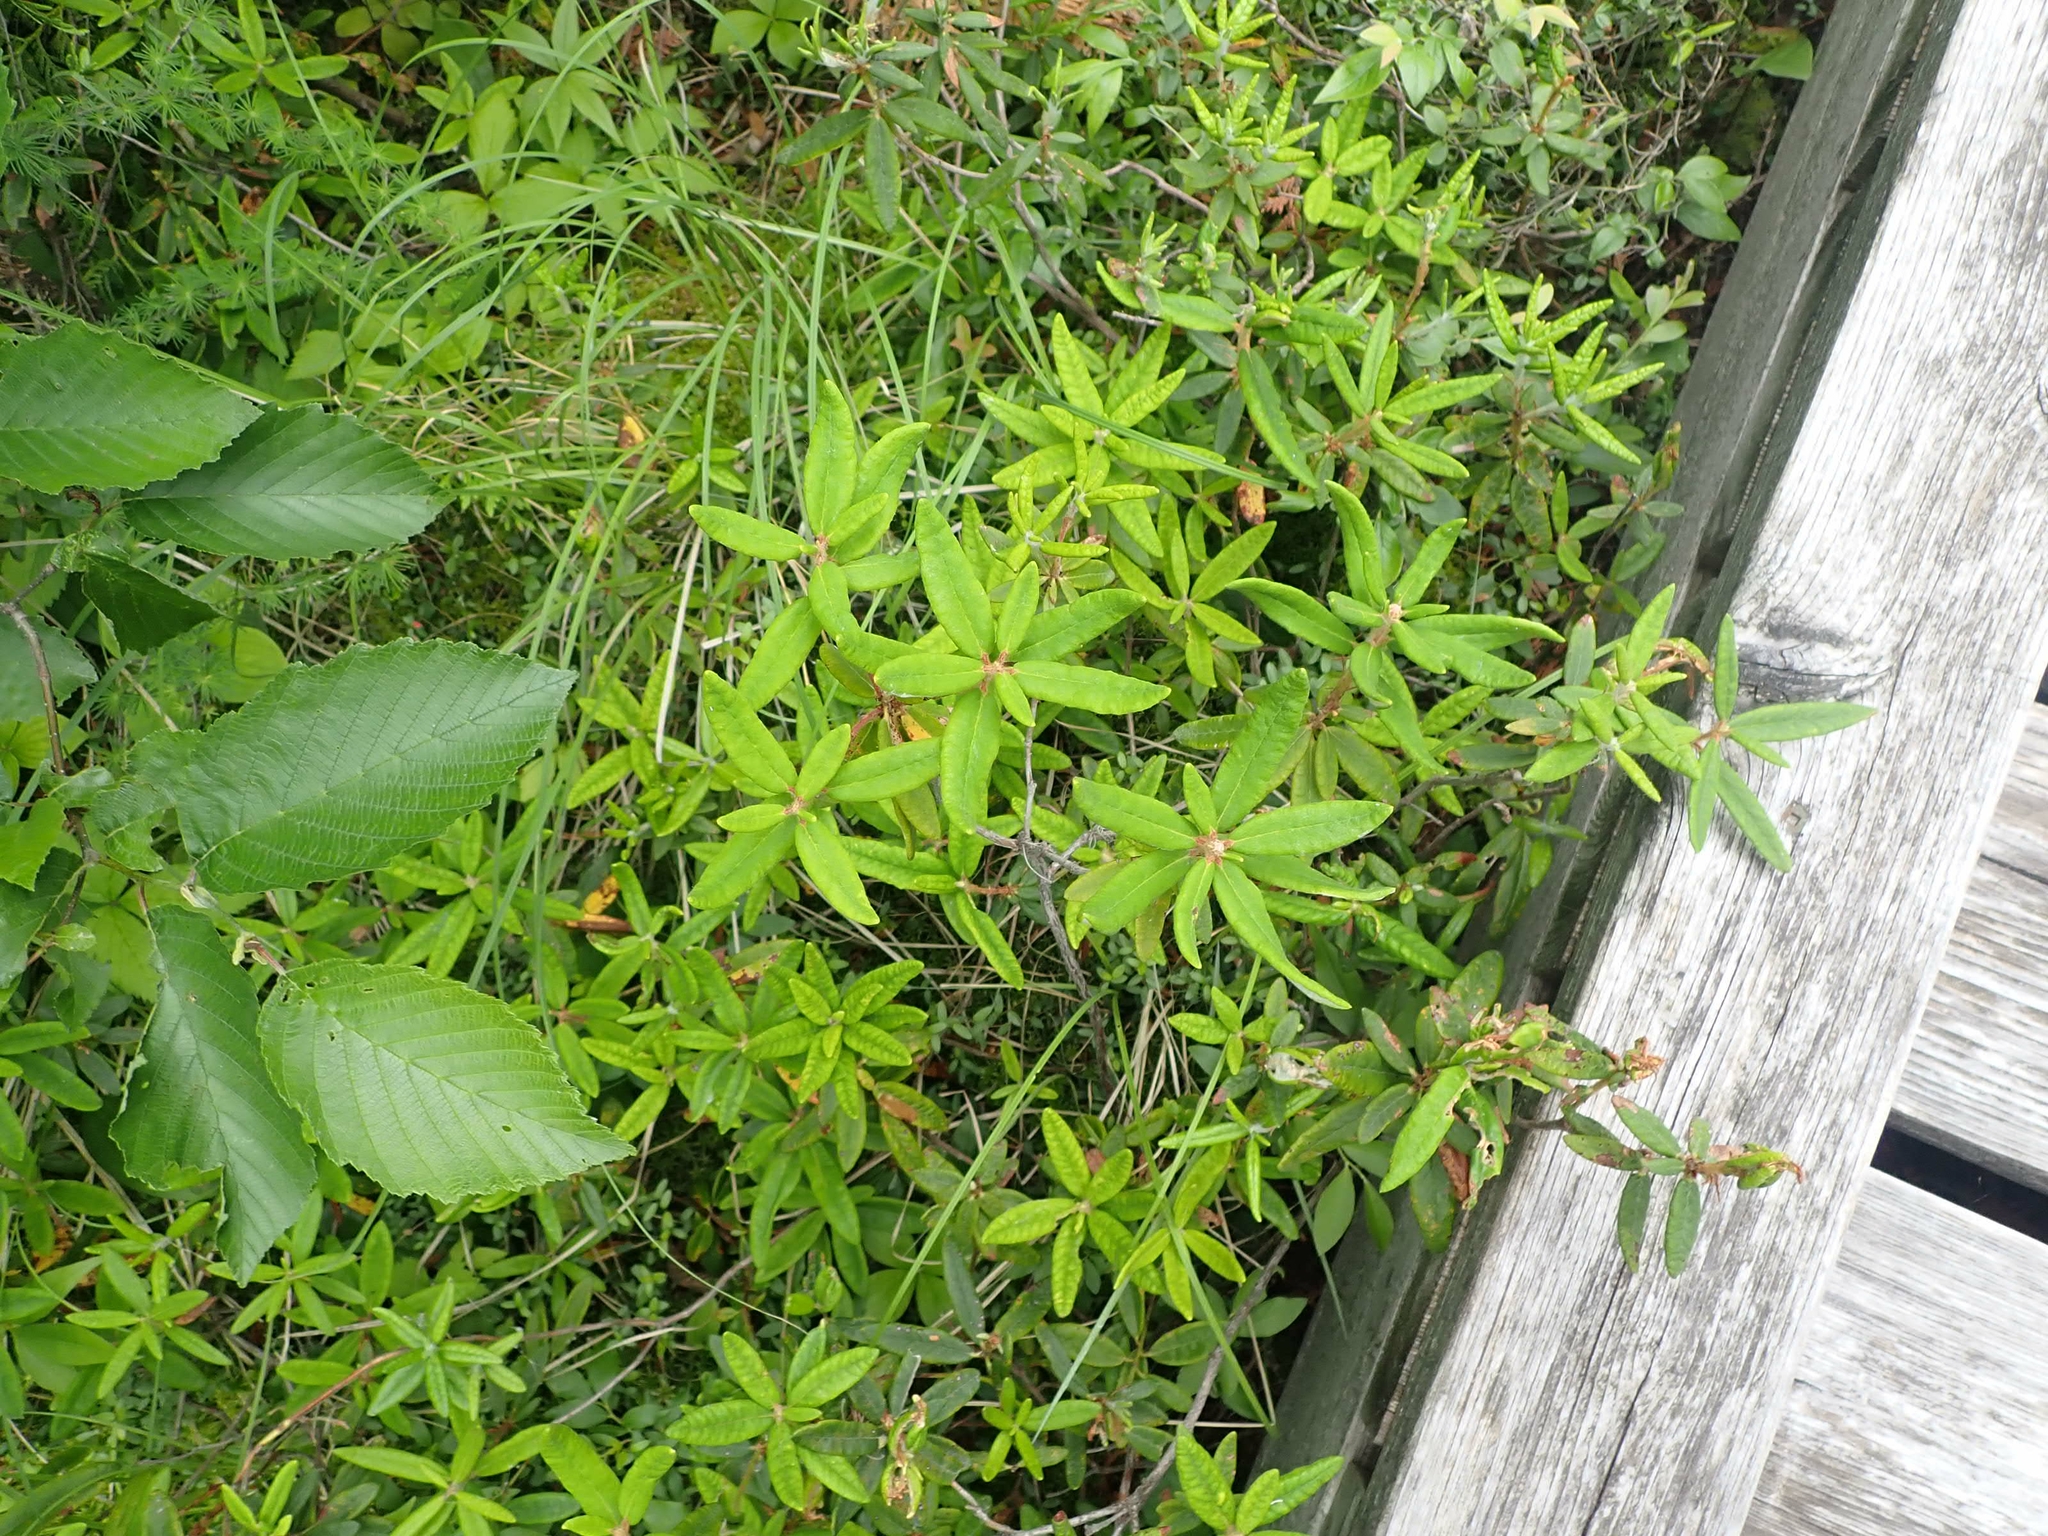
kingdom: Plantae
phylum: Tracheophyta
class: Magnoliopsida
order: Ericales
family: Ericaceae
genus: Rhododendron
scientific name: Rhododendron groenlandicum
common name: Bog labrador tea
